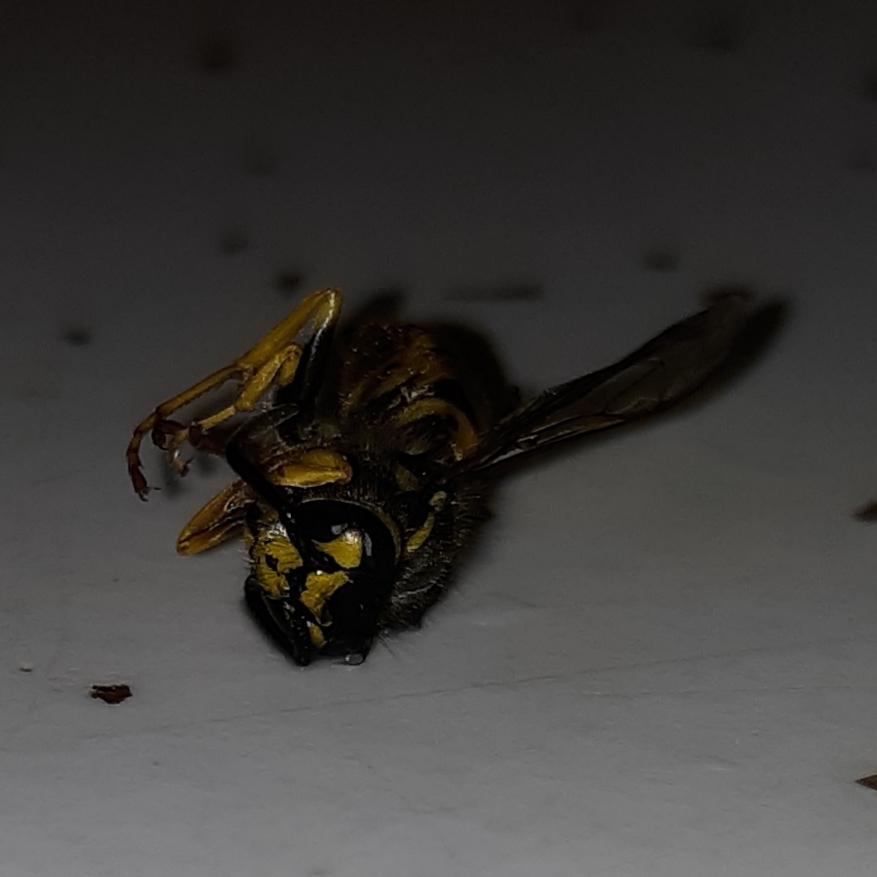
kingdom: Animalia
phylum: Arthropoda
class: Insecta
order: Hymenoptera
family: Vespidae
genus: Vespula
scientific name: Vespula germanica
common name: German wasp
